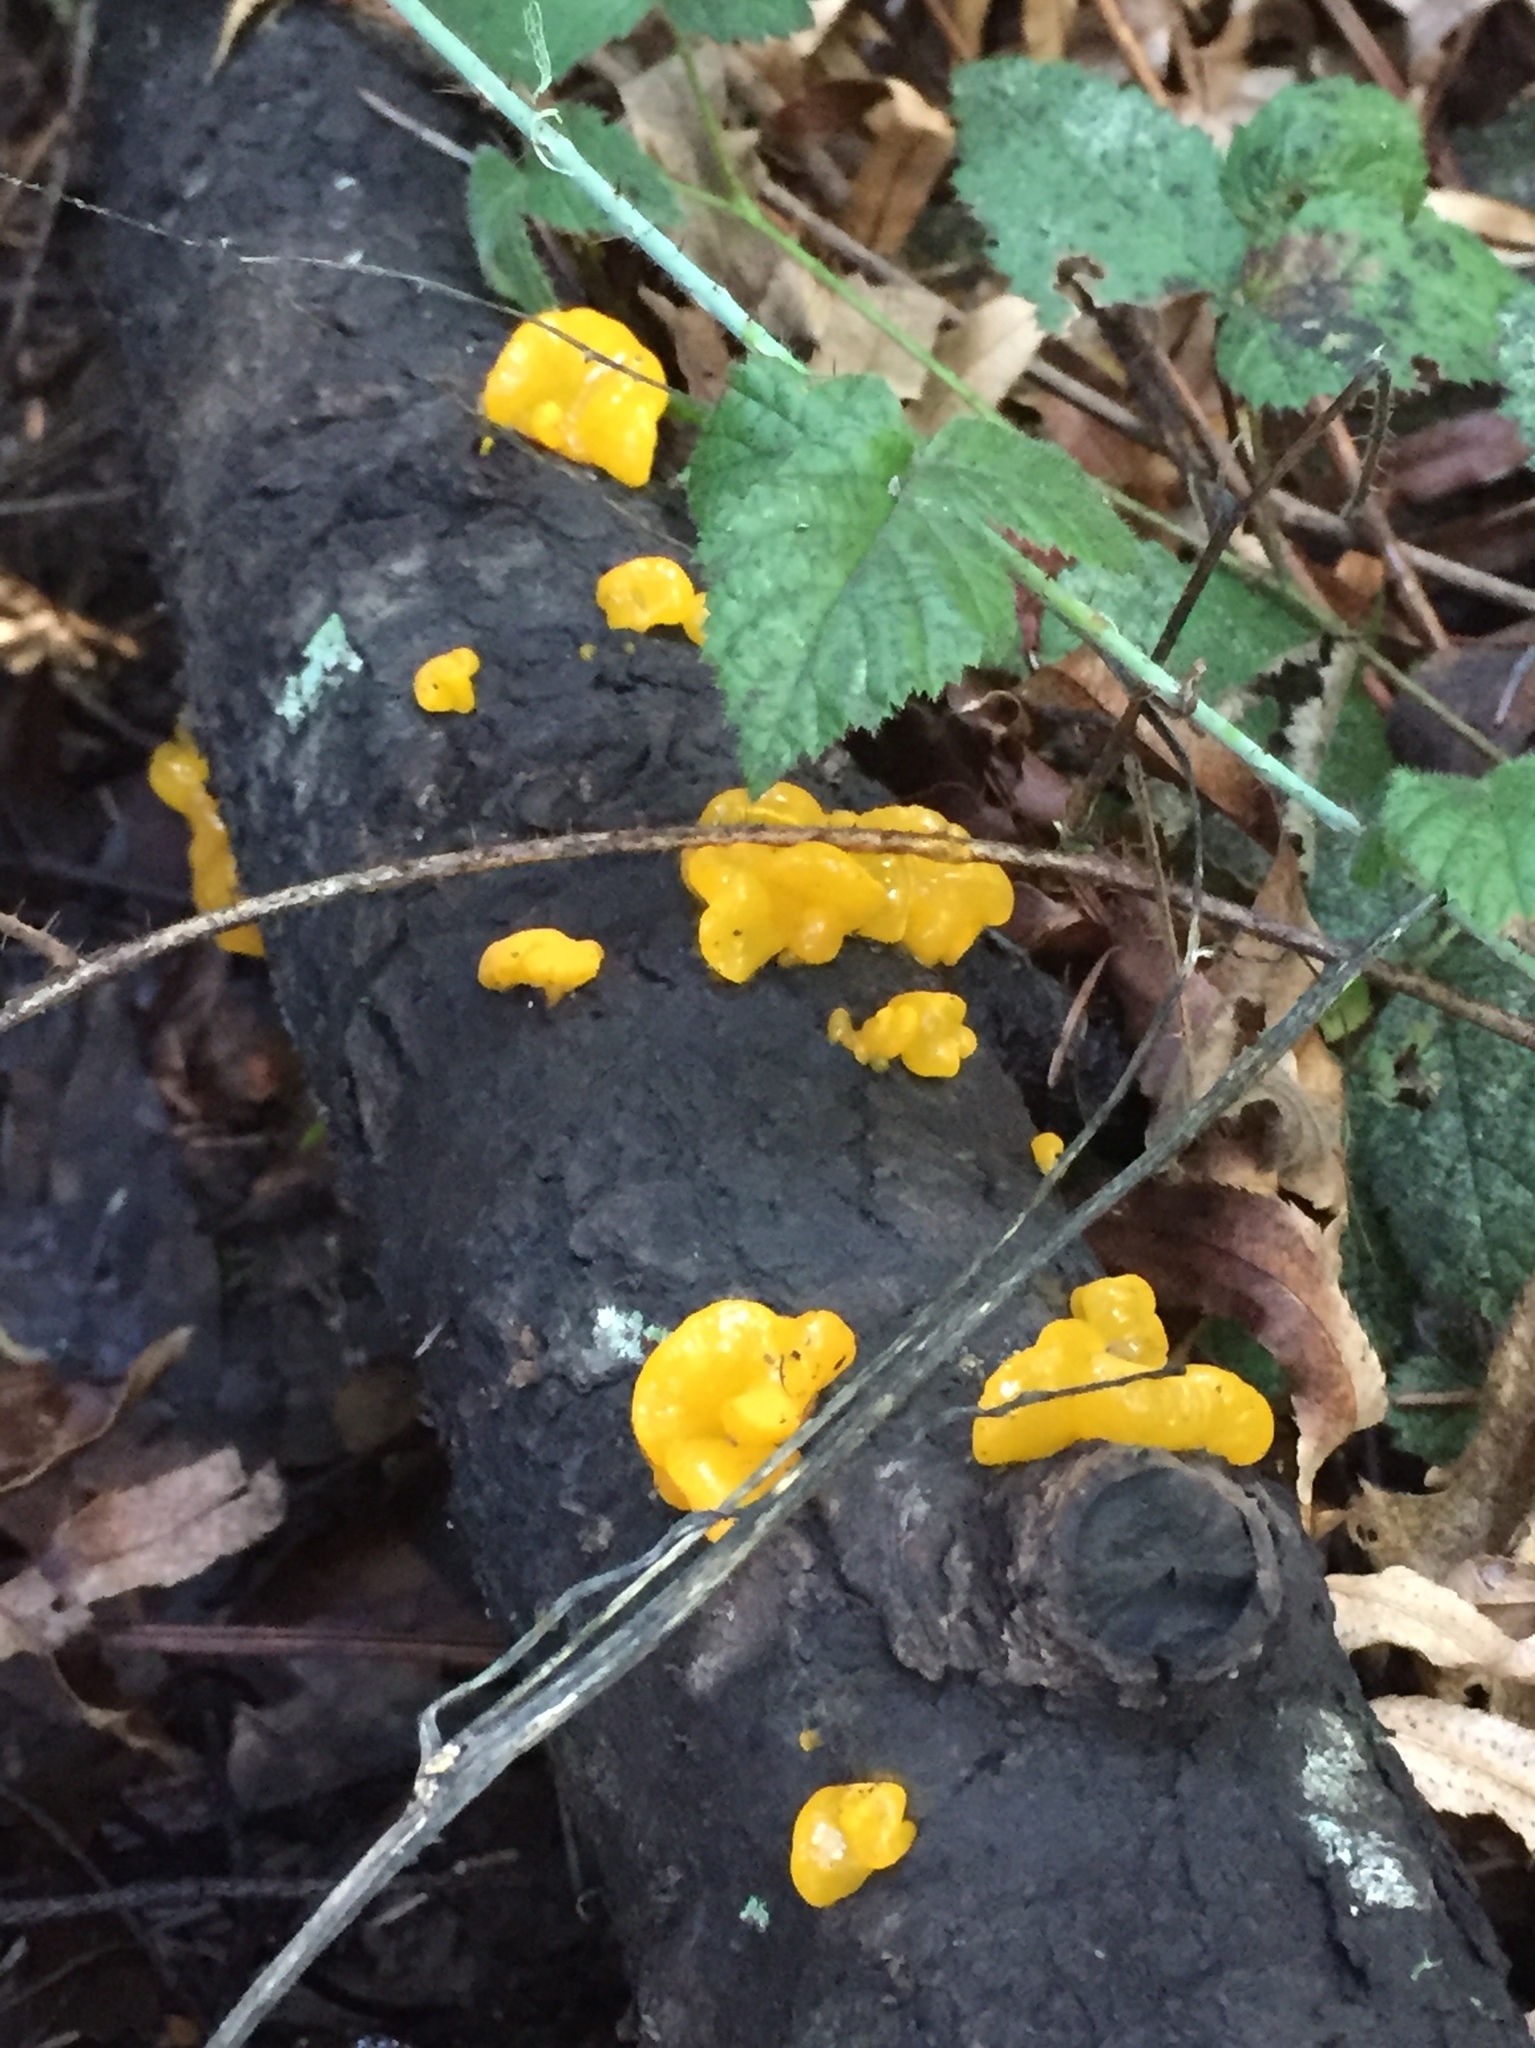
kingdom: Fungi
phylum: Basidiomycota
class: Dacrymycetes
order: Dacrymycetales
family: Dacrymycetaceae
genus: Dacrymyces
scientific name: Dacrymyces chrysospermus
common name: Orange jelly spot
